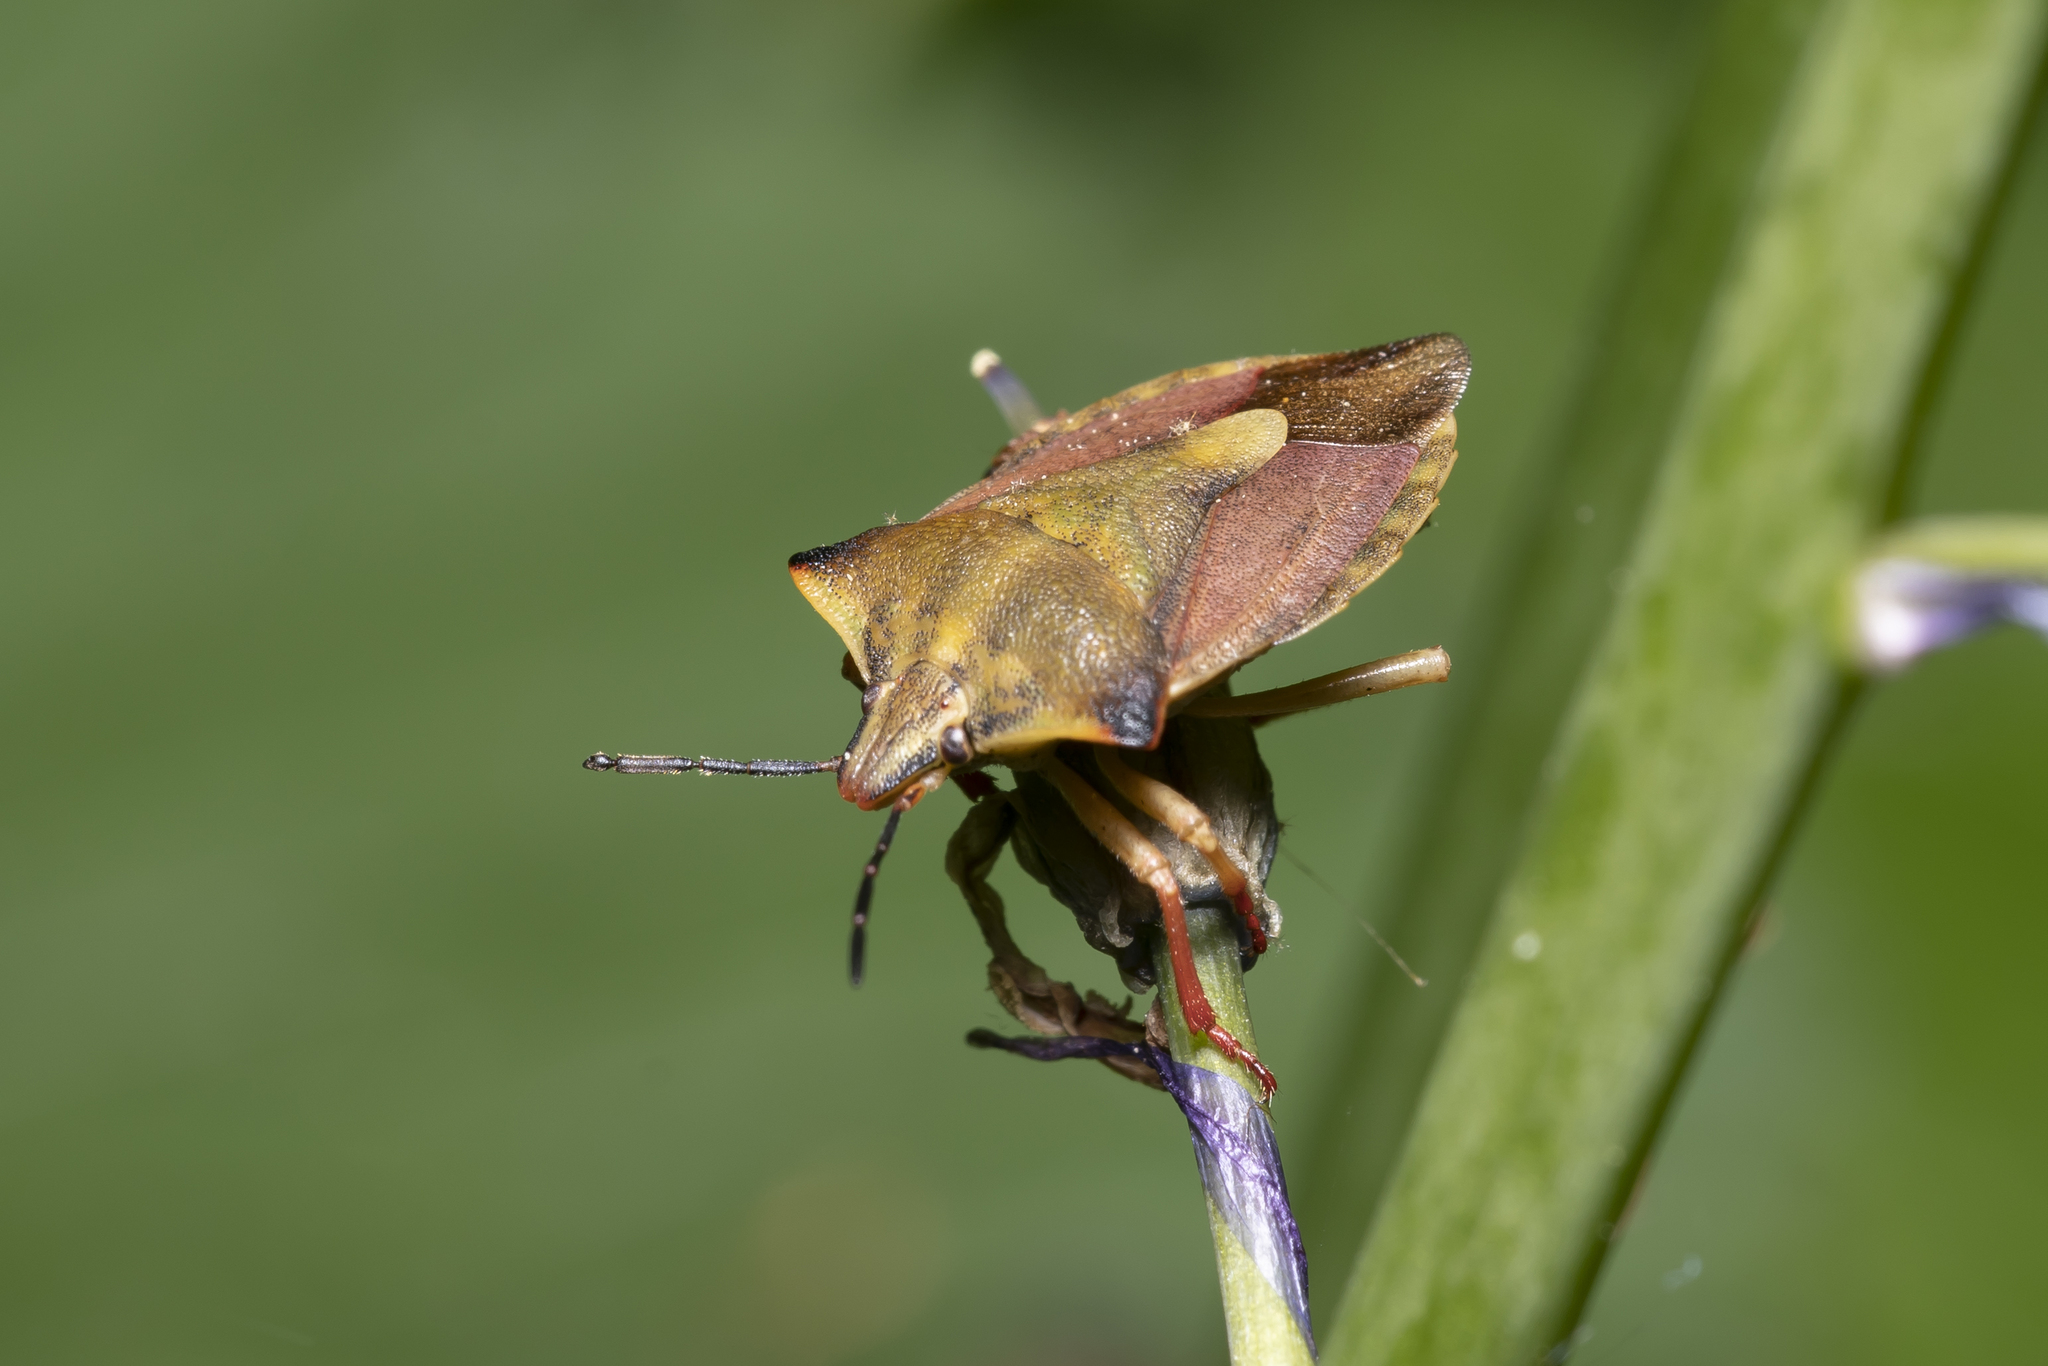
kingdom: Animalia
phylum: Arthropoda
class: Insecta
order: Hemiptera
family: Pentatomidae
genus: Carpocoris
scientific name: Carpocoris fuscispinus
